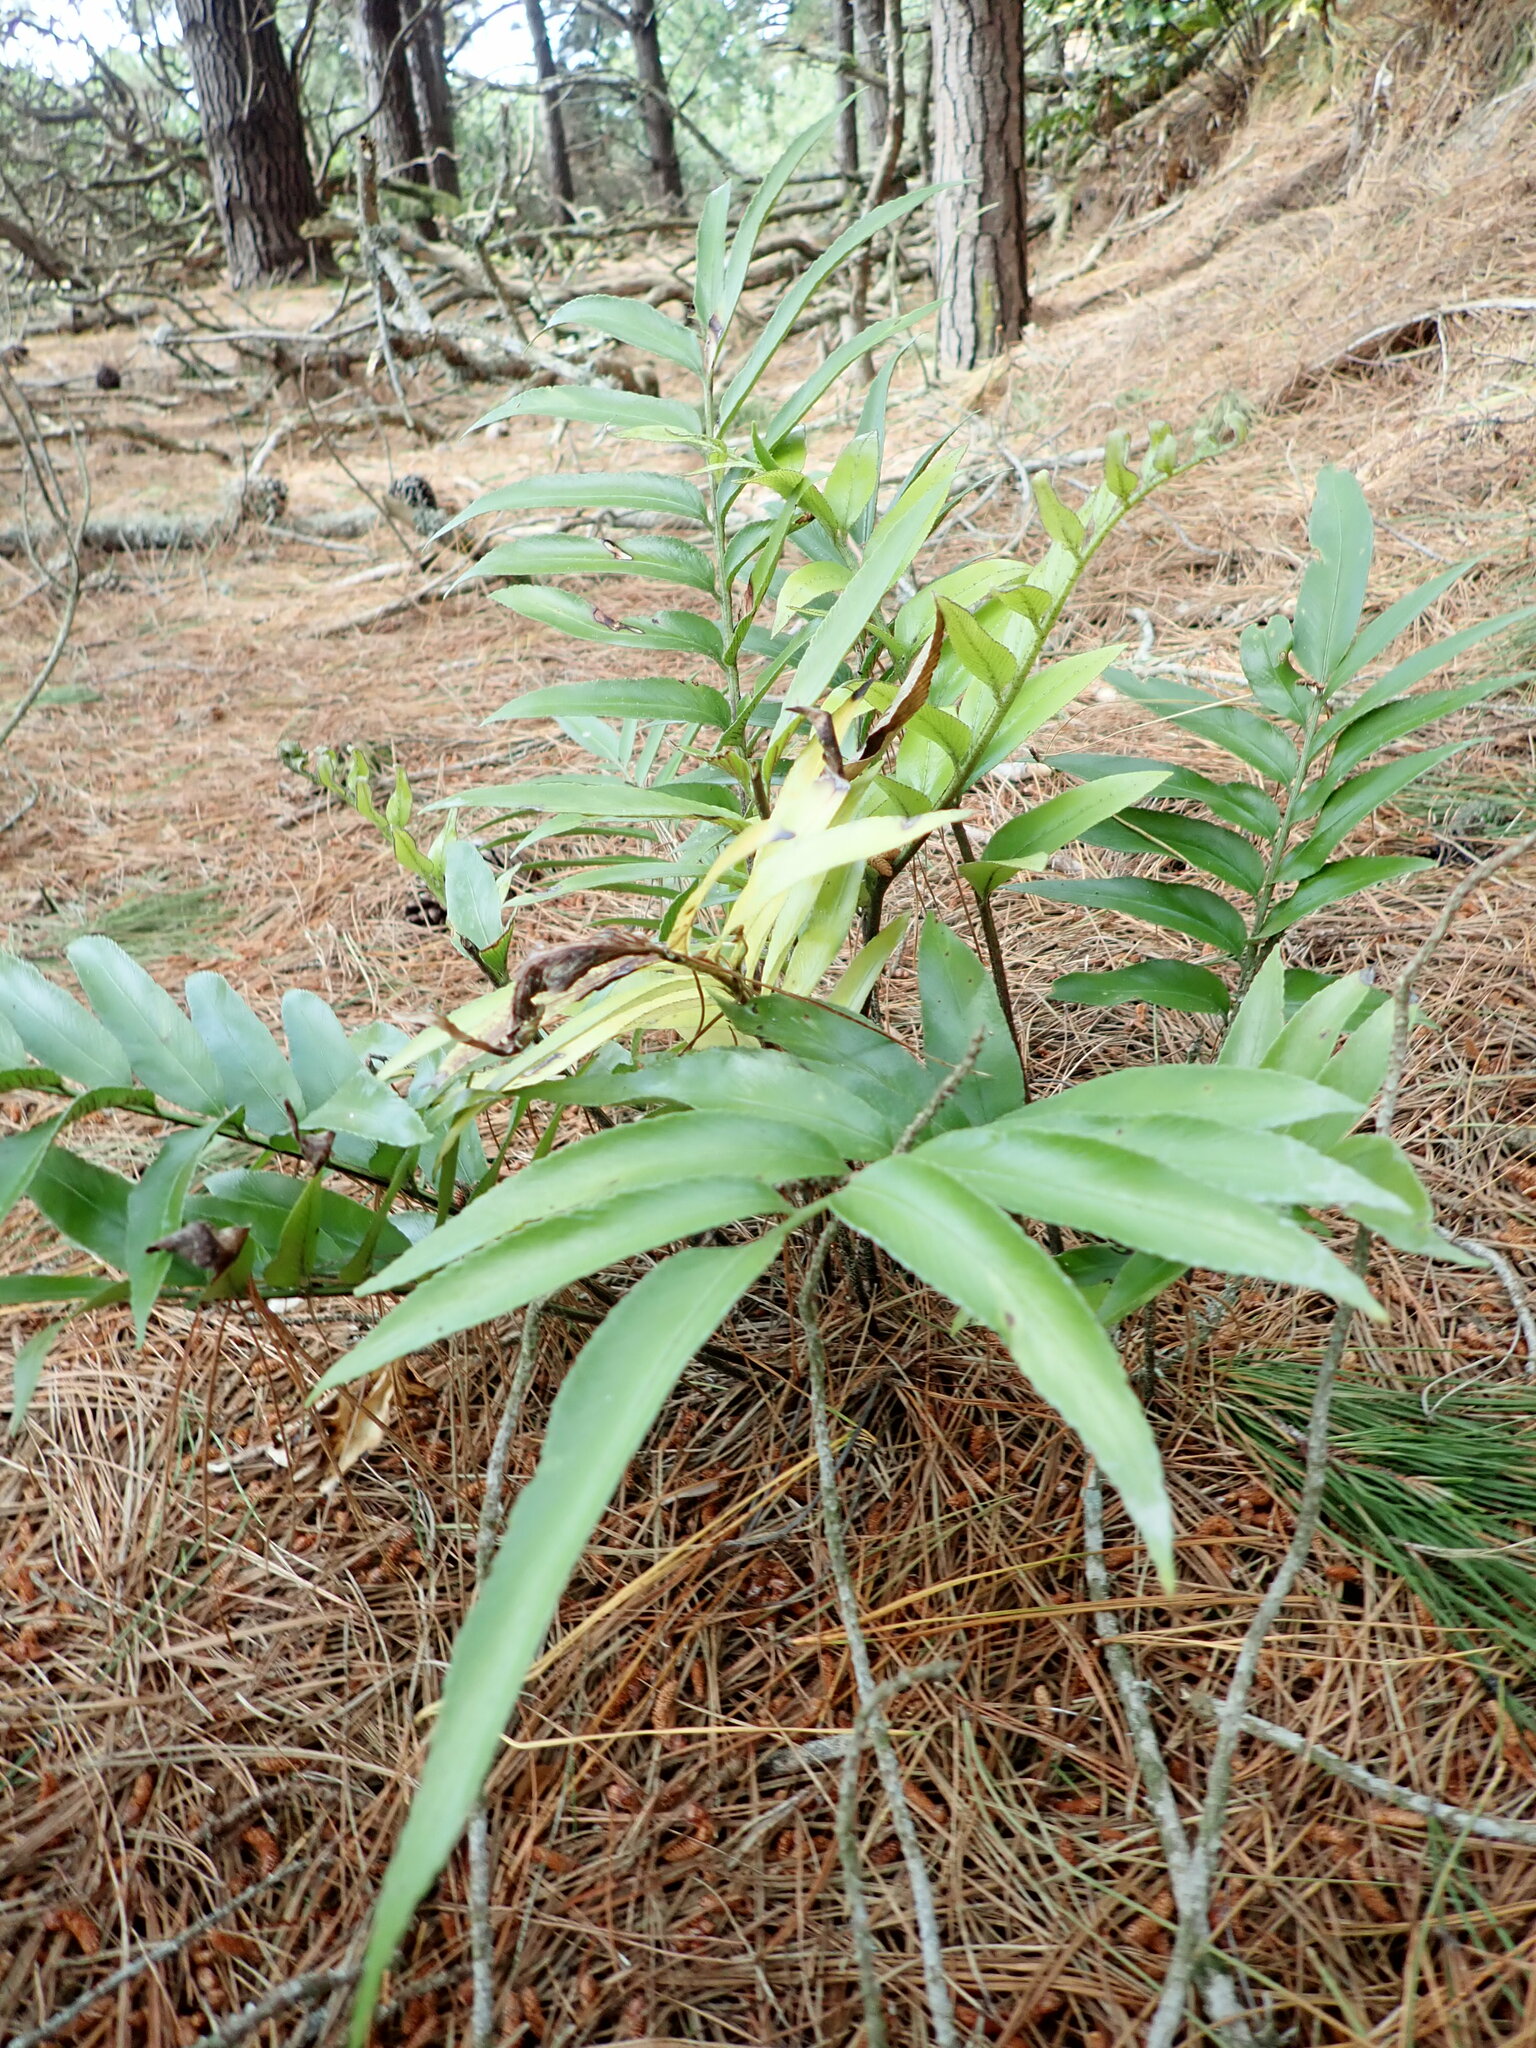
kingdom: Plantae
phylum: Tracheophyta
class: Polypodiopsida
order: Polypodiales
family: Aspleniaceae
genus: Asplenium
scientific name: Asplenium oblongifolium
